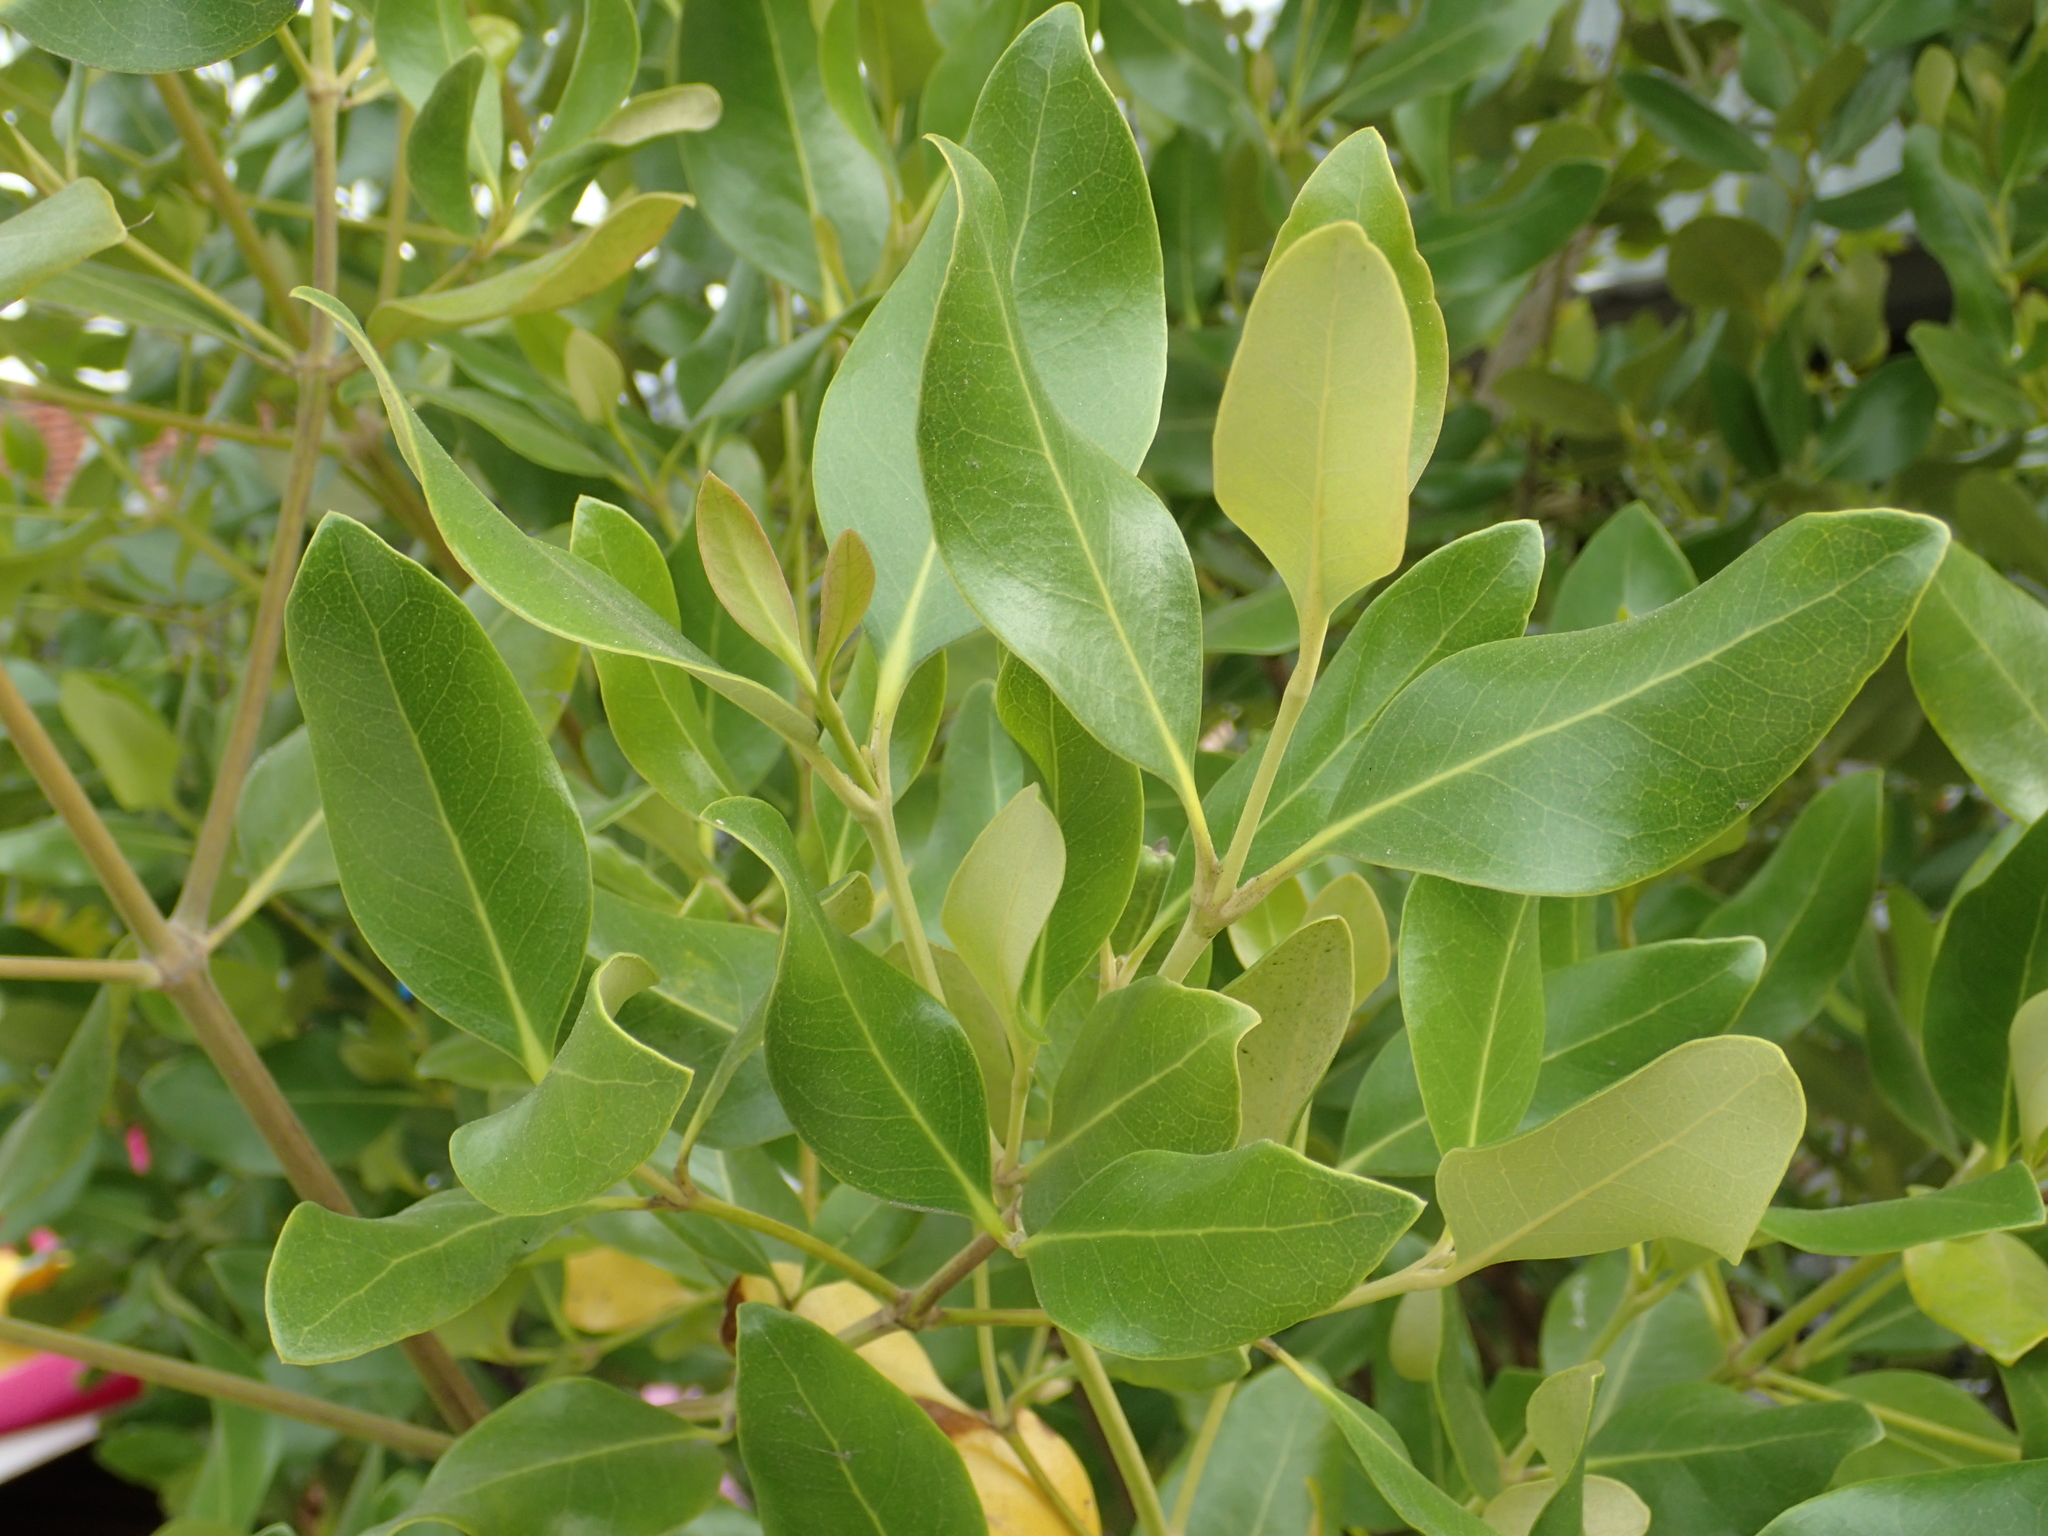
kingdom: Plantae
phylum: Tracheophyta
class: Magnoliopsida
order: Lamiales
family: Acanthaceae
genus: Avicennia
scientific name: Avicennia marina
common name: Gray mangrove
